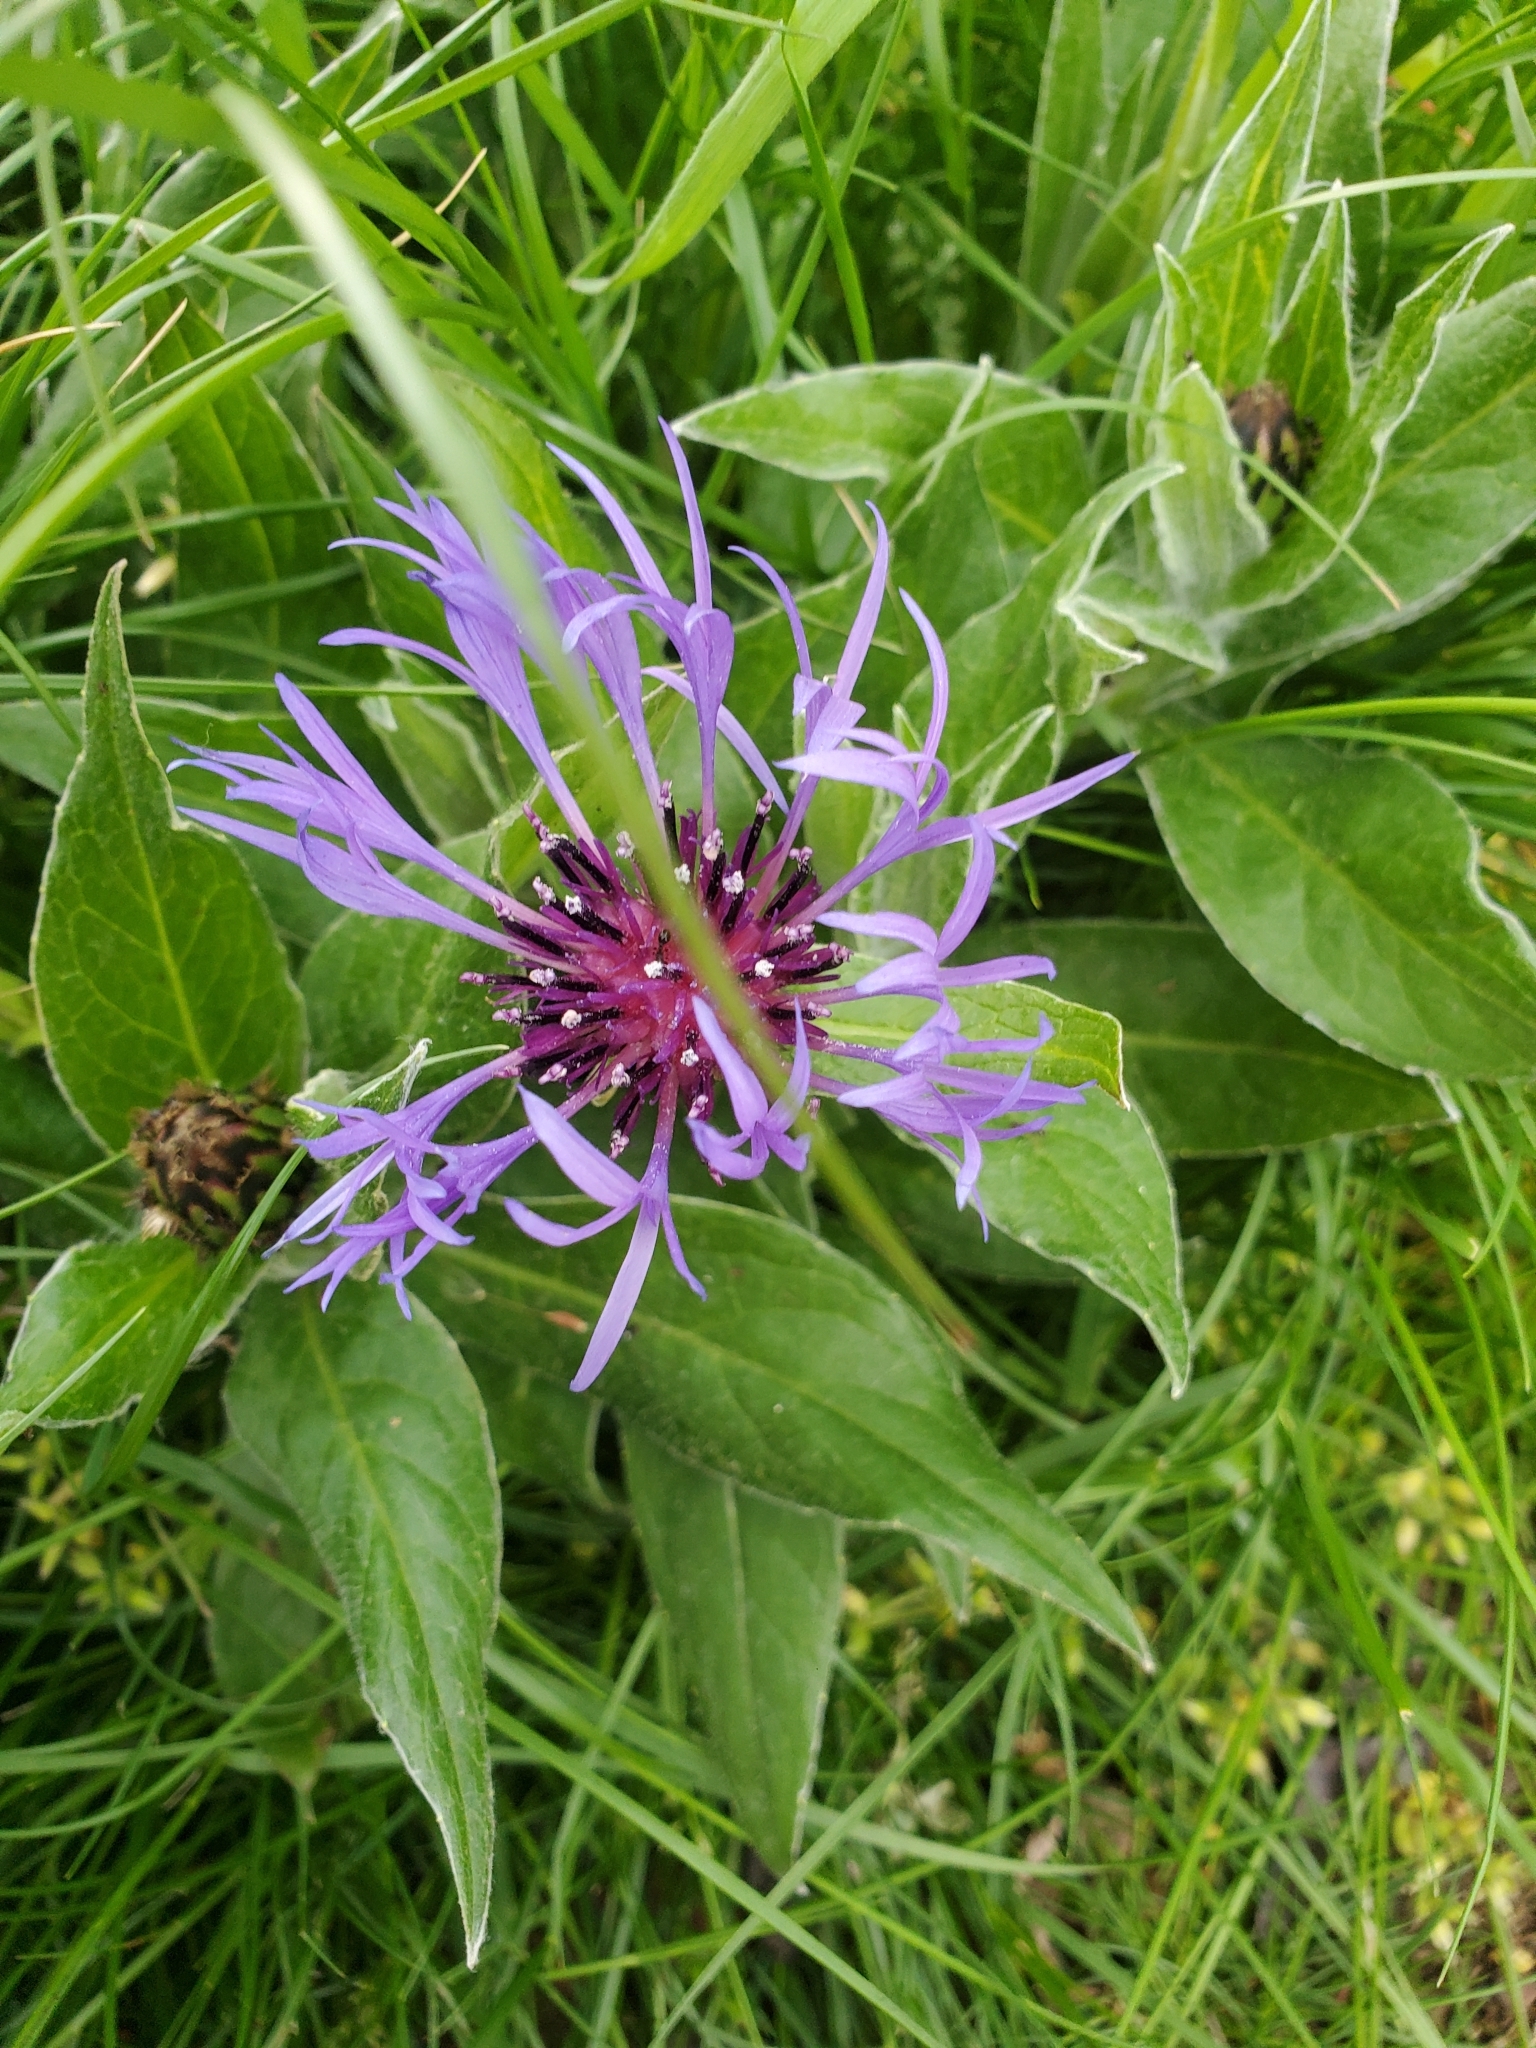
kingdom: Plantae
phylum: Tracheophyta
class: Magnoliopsida
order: Asterales
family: Asteraceae
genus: Centaurea
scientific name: Centaurea montana
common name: Perennial cornflower
